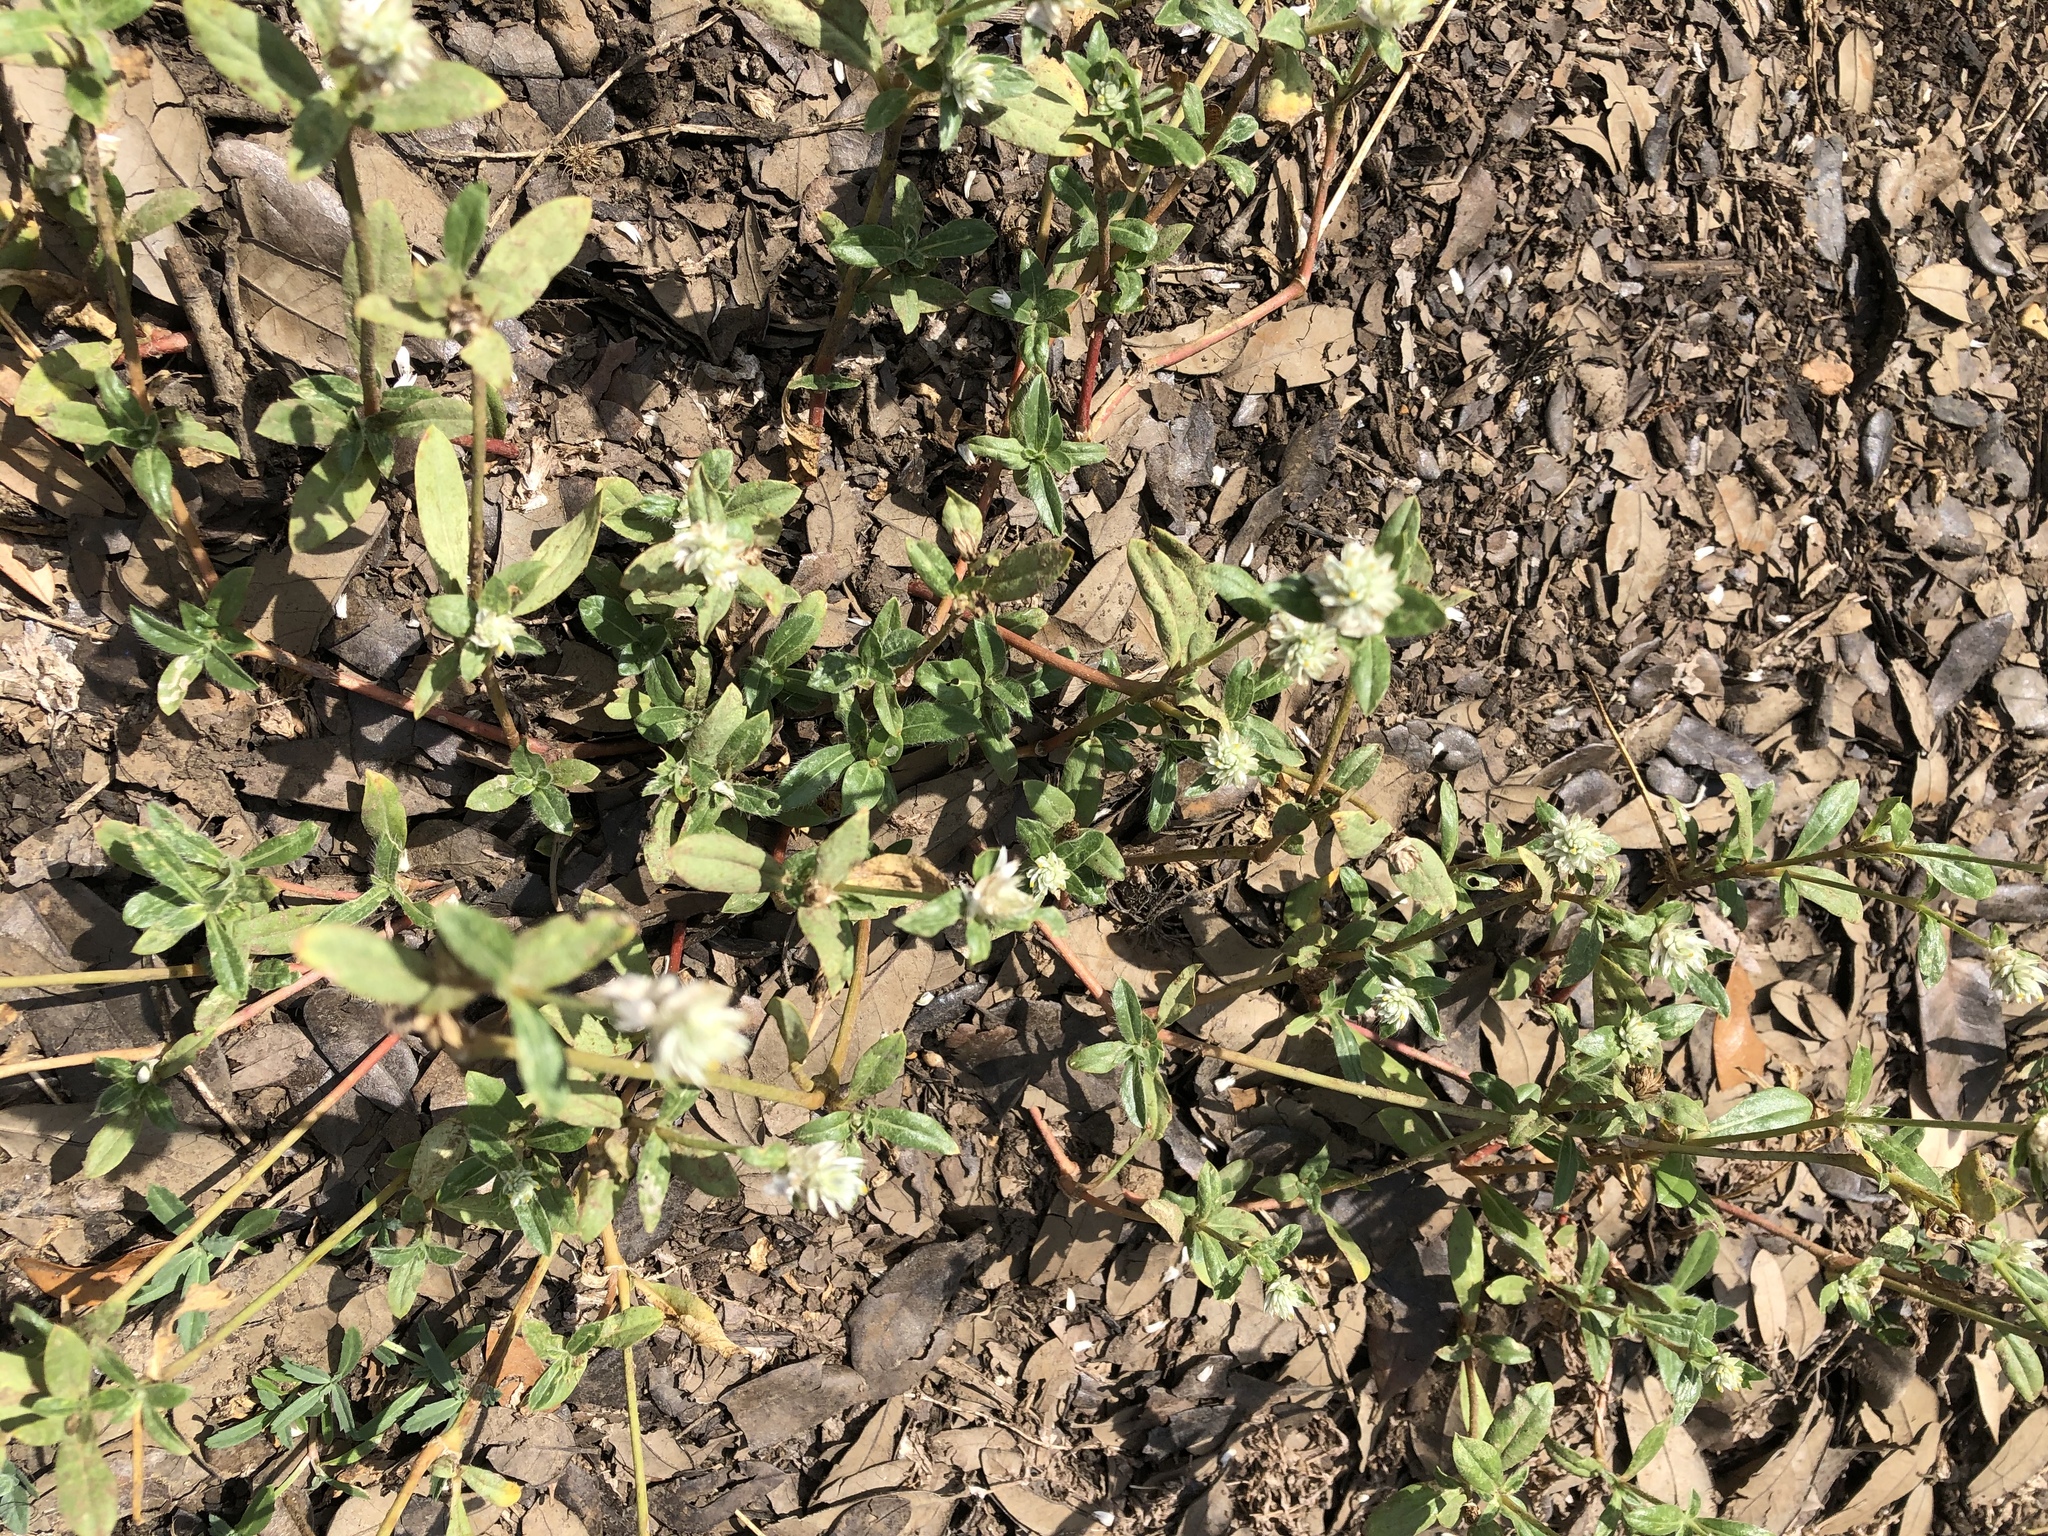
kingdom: Plantae
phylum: Tracheophyta
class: Magnoliopsida
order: Caryophyllales
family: Amaranthaceae
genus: Gomphrena
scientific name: Gomphrena serrata
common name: Arrasa con todo
